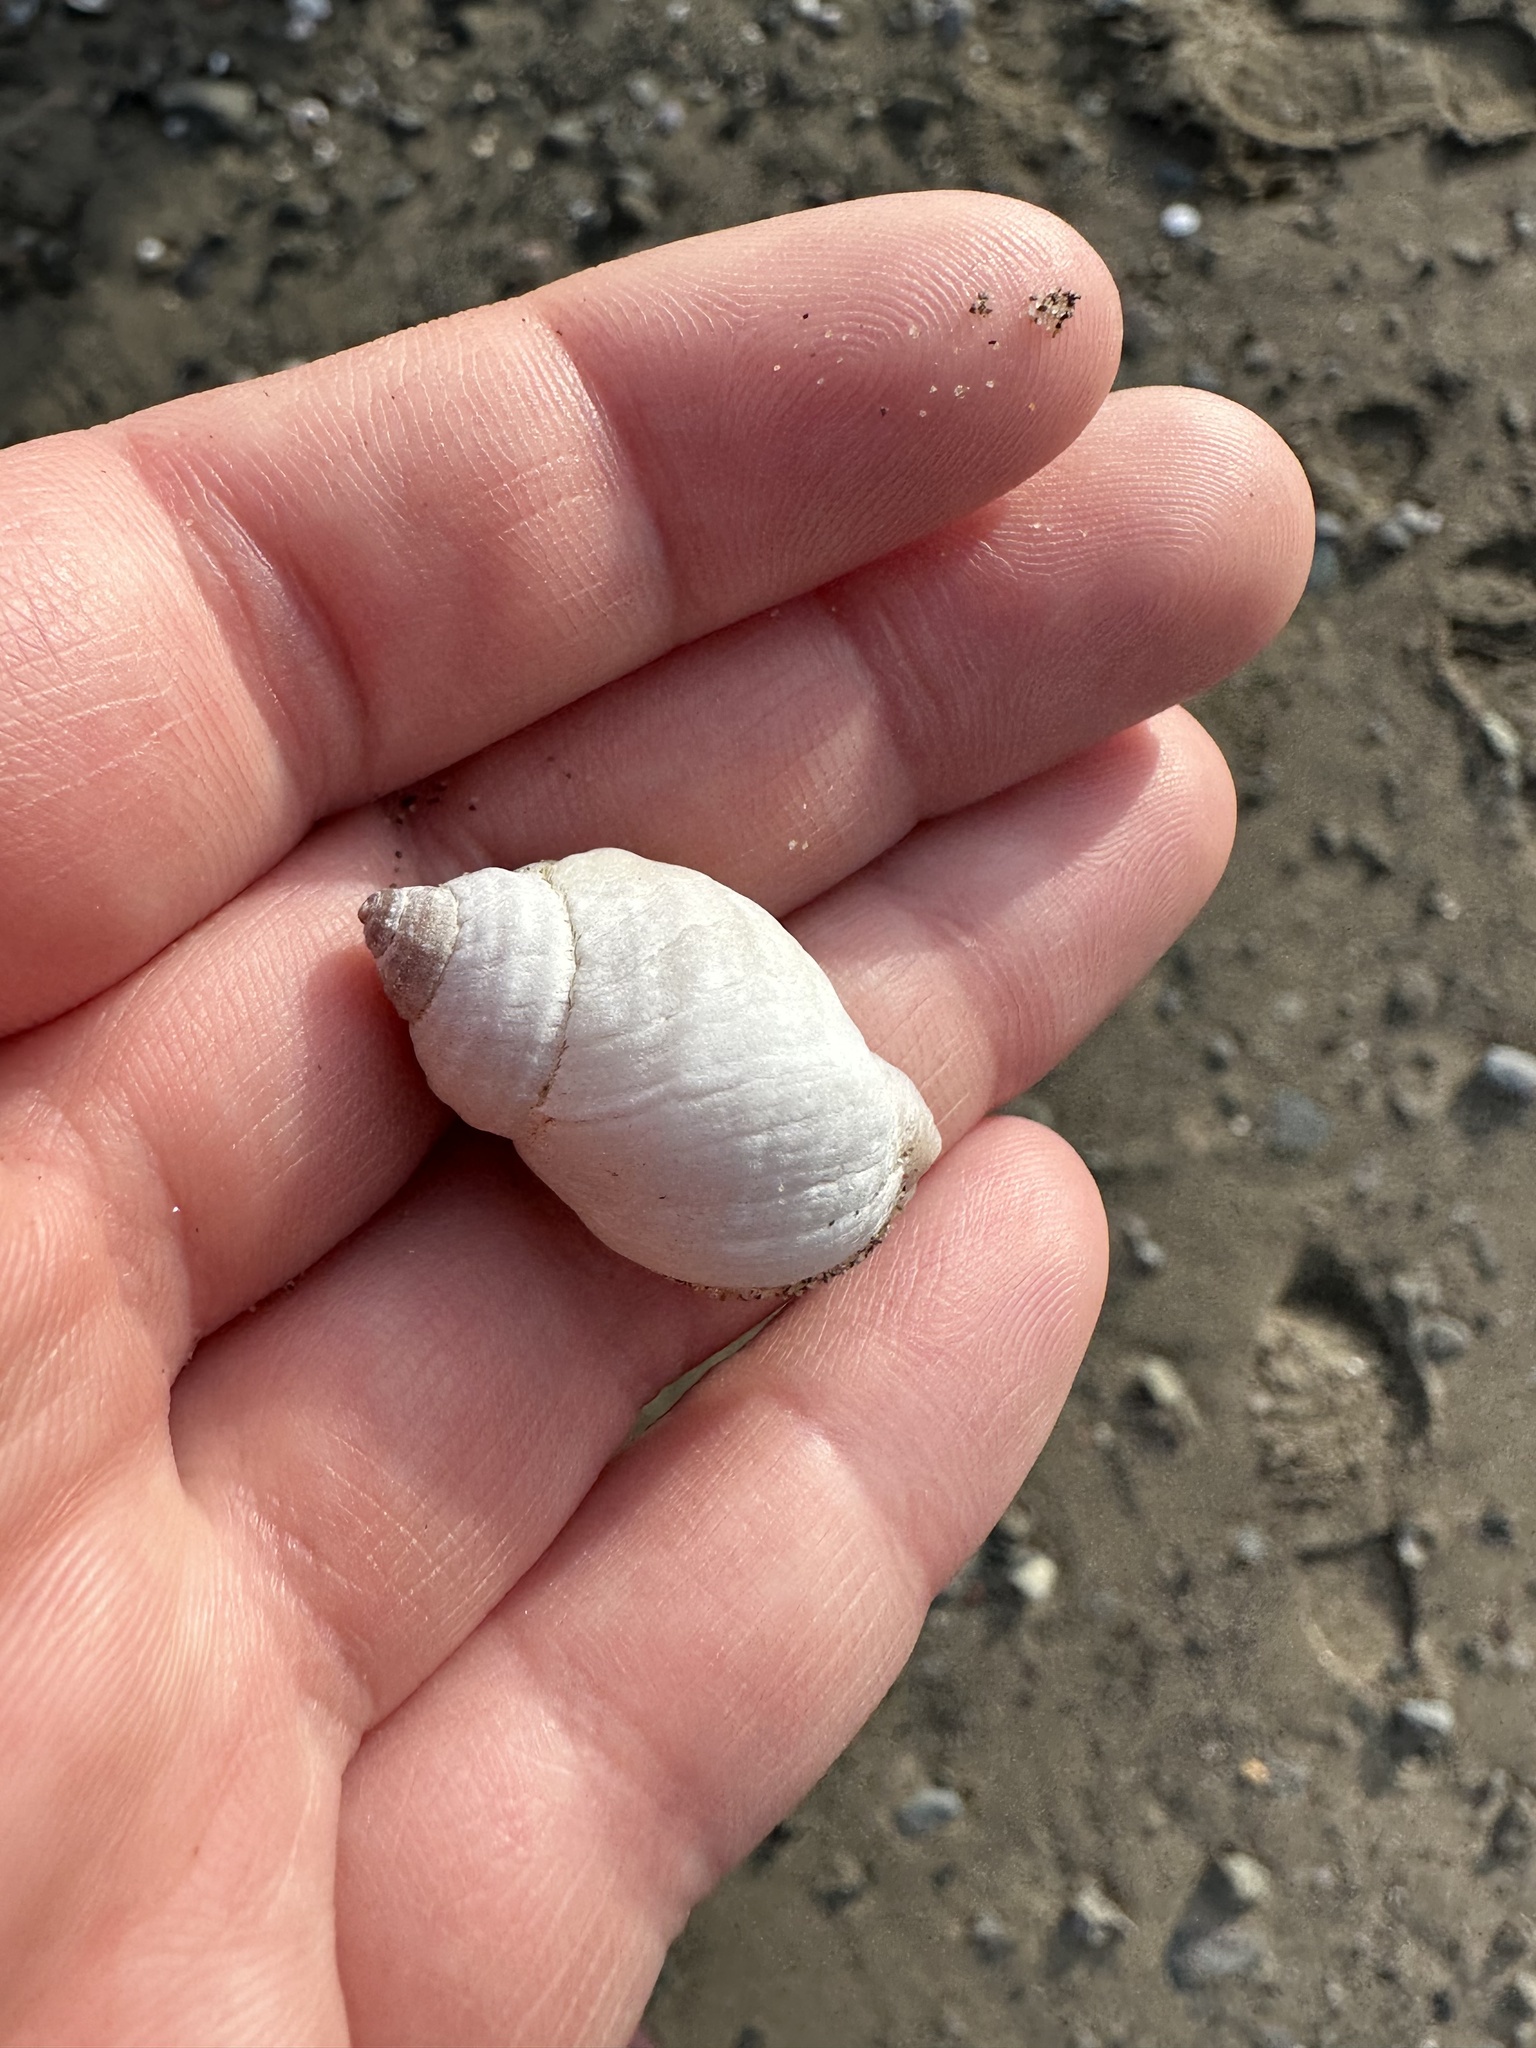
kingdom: Animalia
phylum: Mollusca
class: Gastropoda
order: Neogastropoda
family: Muricidae
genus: Nucella
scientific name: Nucella lapillus
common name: Dog whelk
